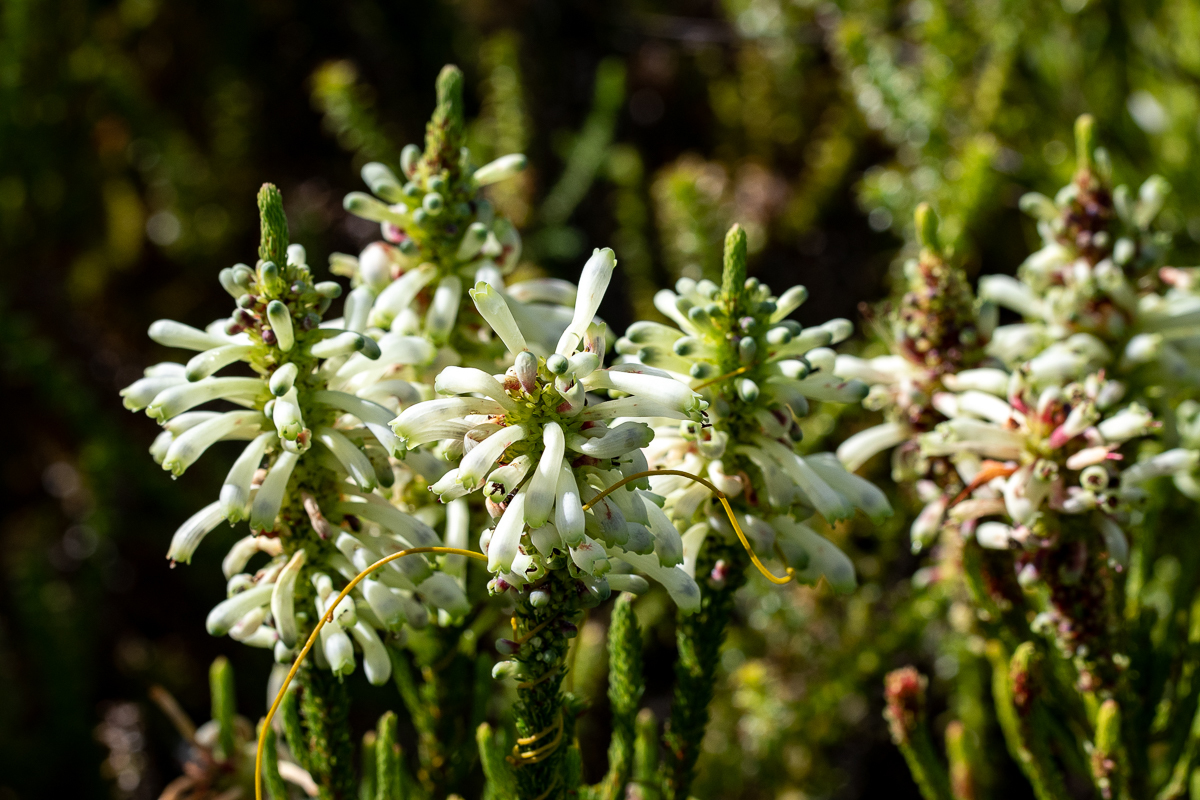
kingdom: Plantae
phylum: Tracheophyta
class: Magnoliopsida
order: Ericales
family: Ericaceae
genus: Erica
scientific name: Erica sessiliflora
